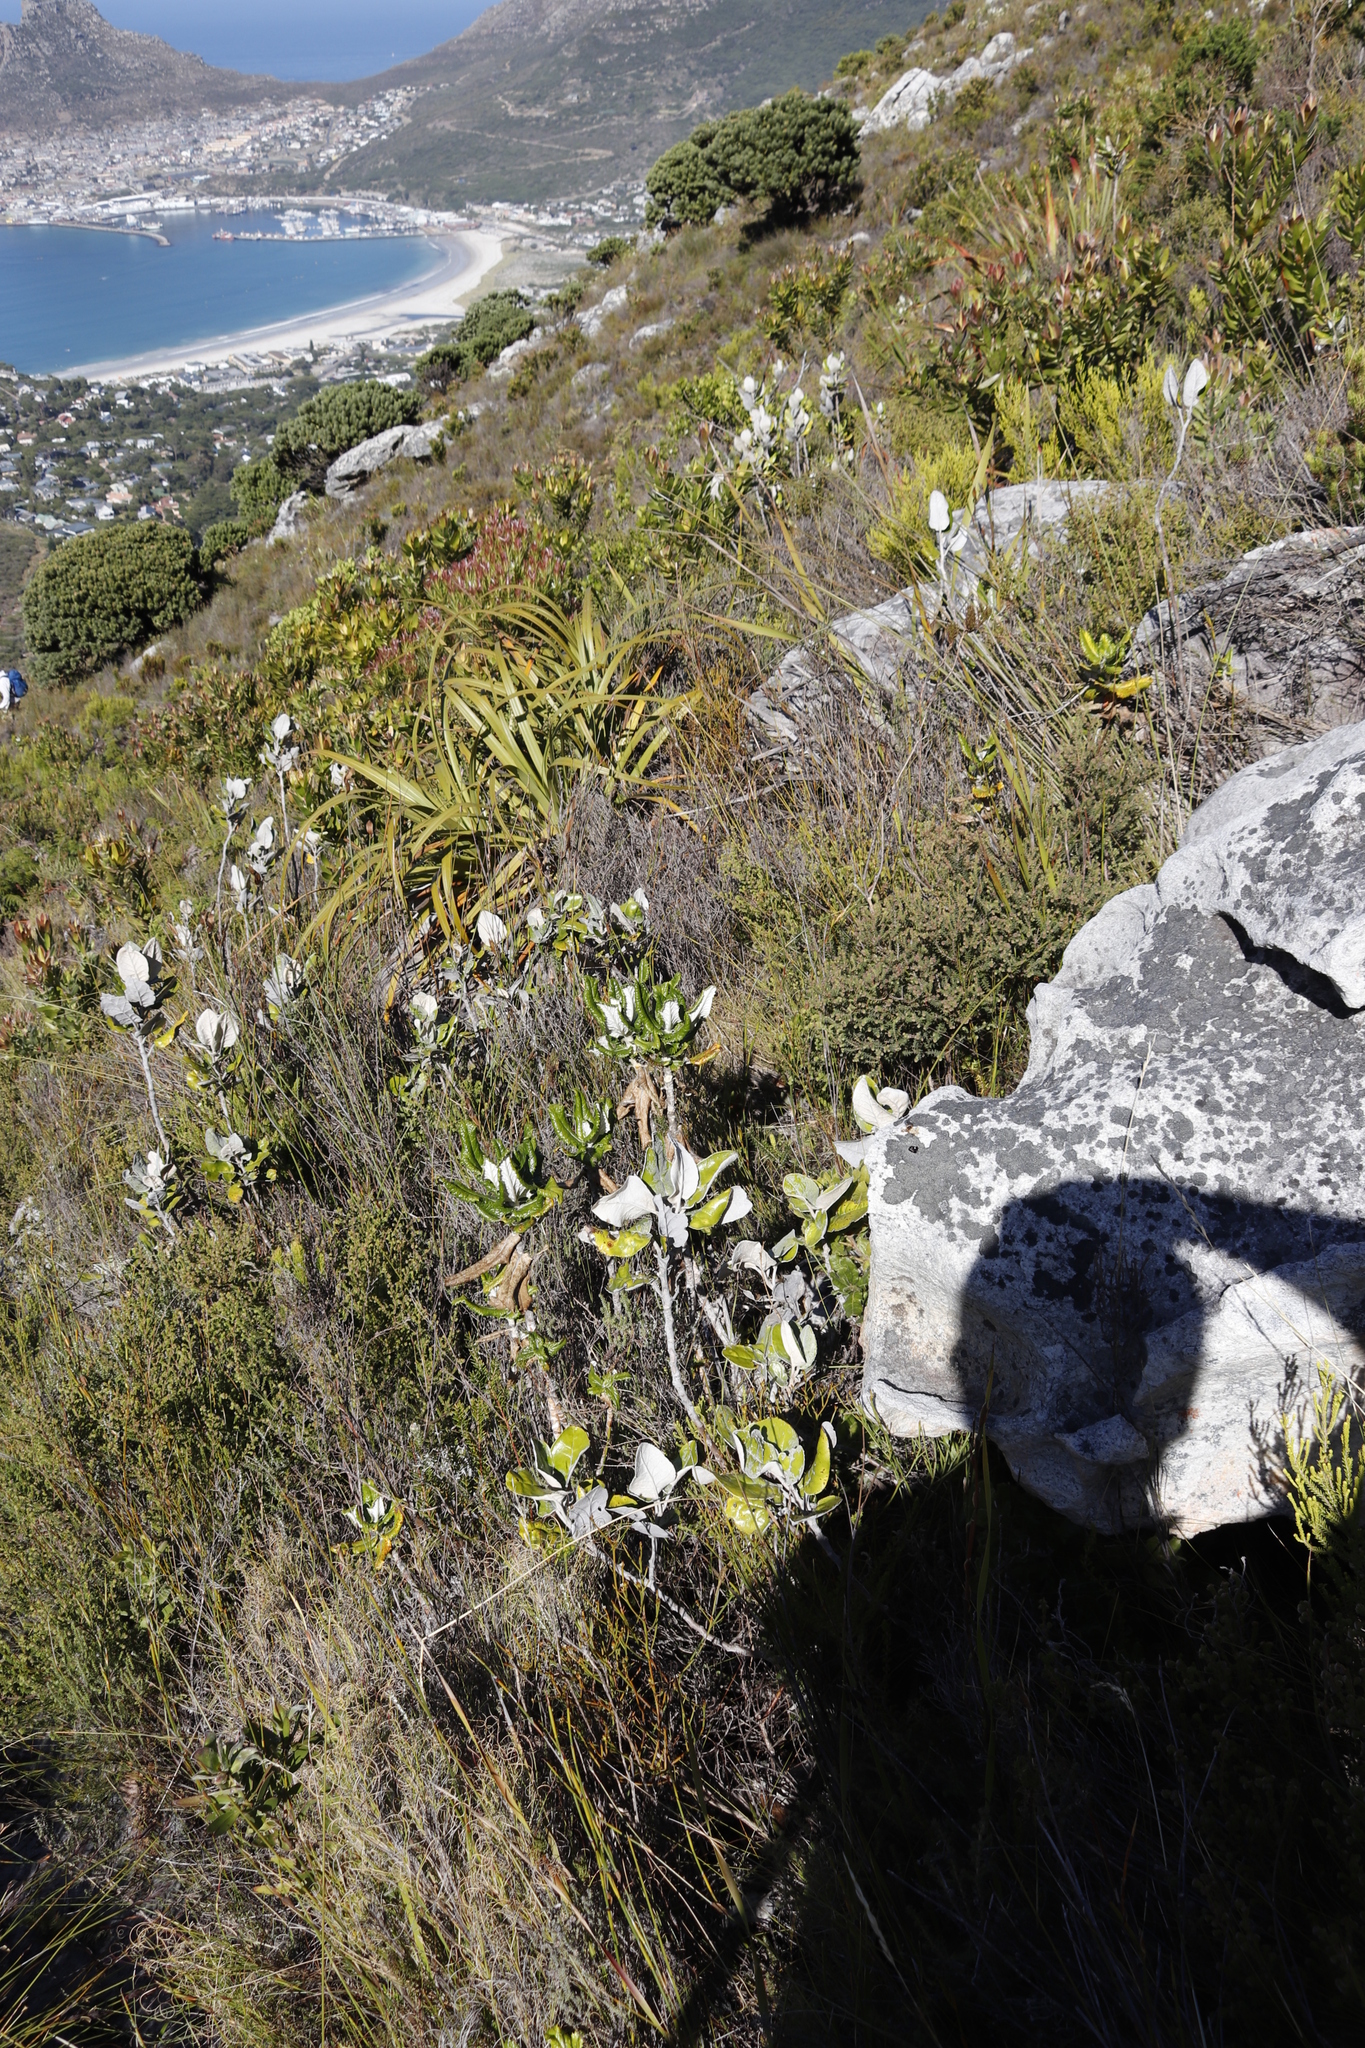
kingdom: Plantae
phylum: Tracheophyta
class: Magnoliopsida
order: Apiales
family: Apiaceae
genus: Hermas
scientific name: Hermas villosa
